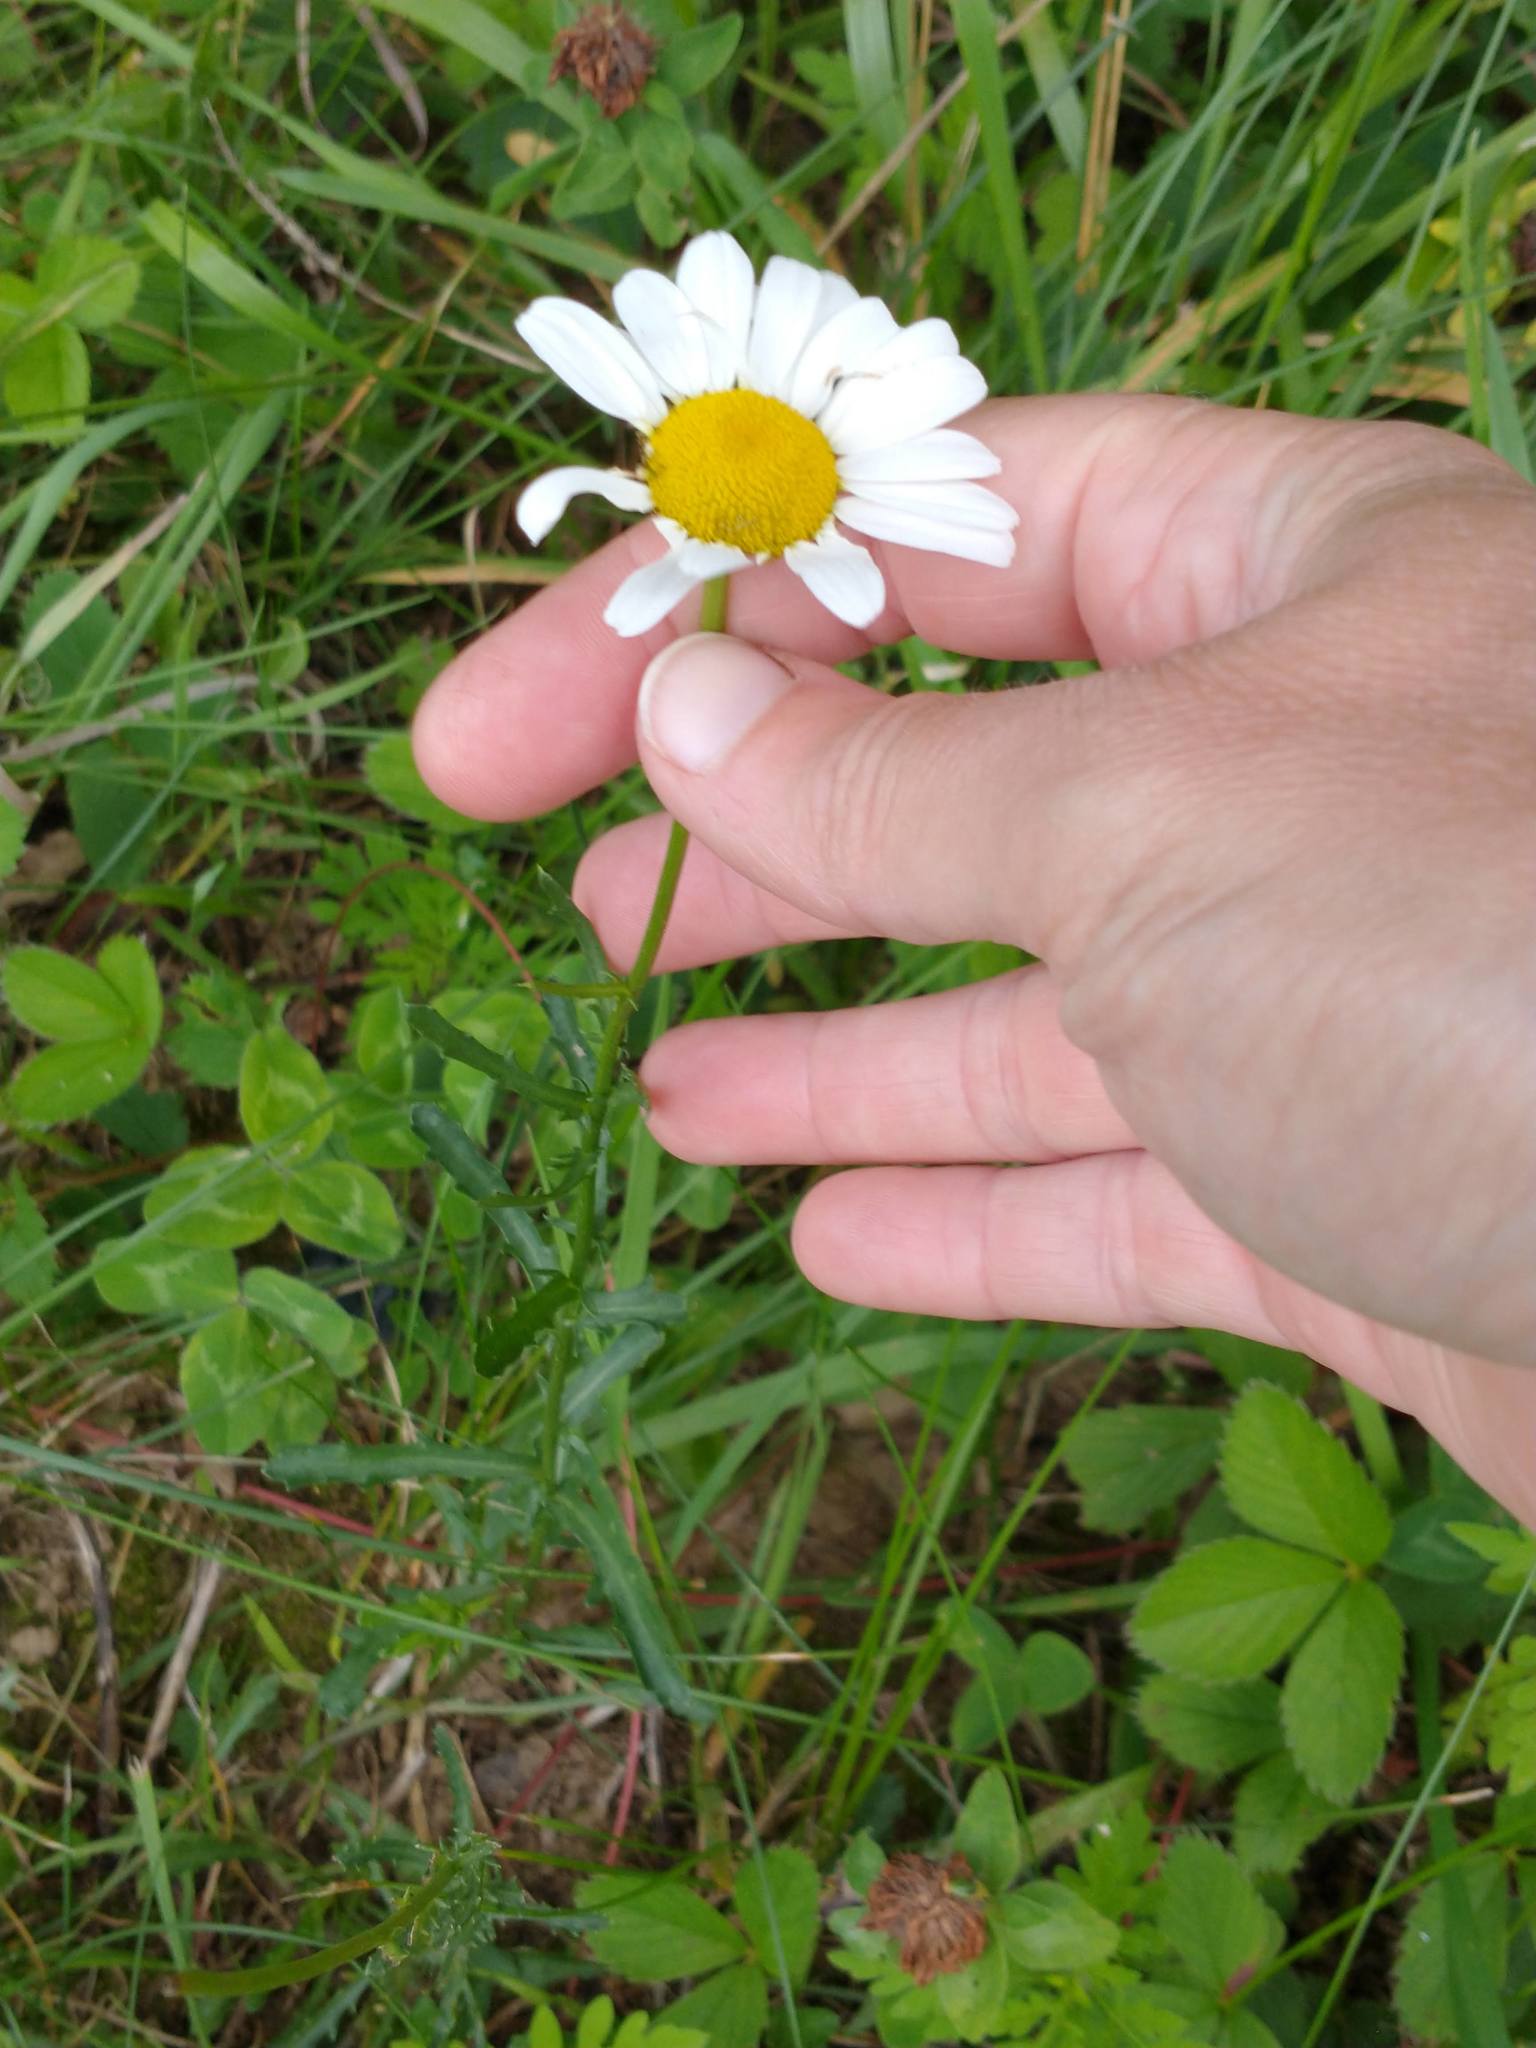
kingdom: Plantae
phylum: Tracheophyta
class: Magnoliopsida
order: Asterales
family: Asteraceae
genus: Leucanthemum
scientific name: Leucanthemum vulgare
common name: Oxeye daisy
